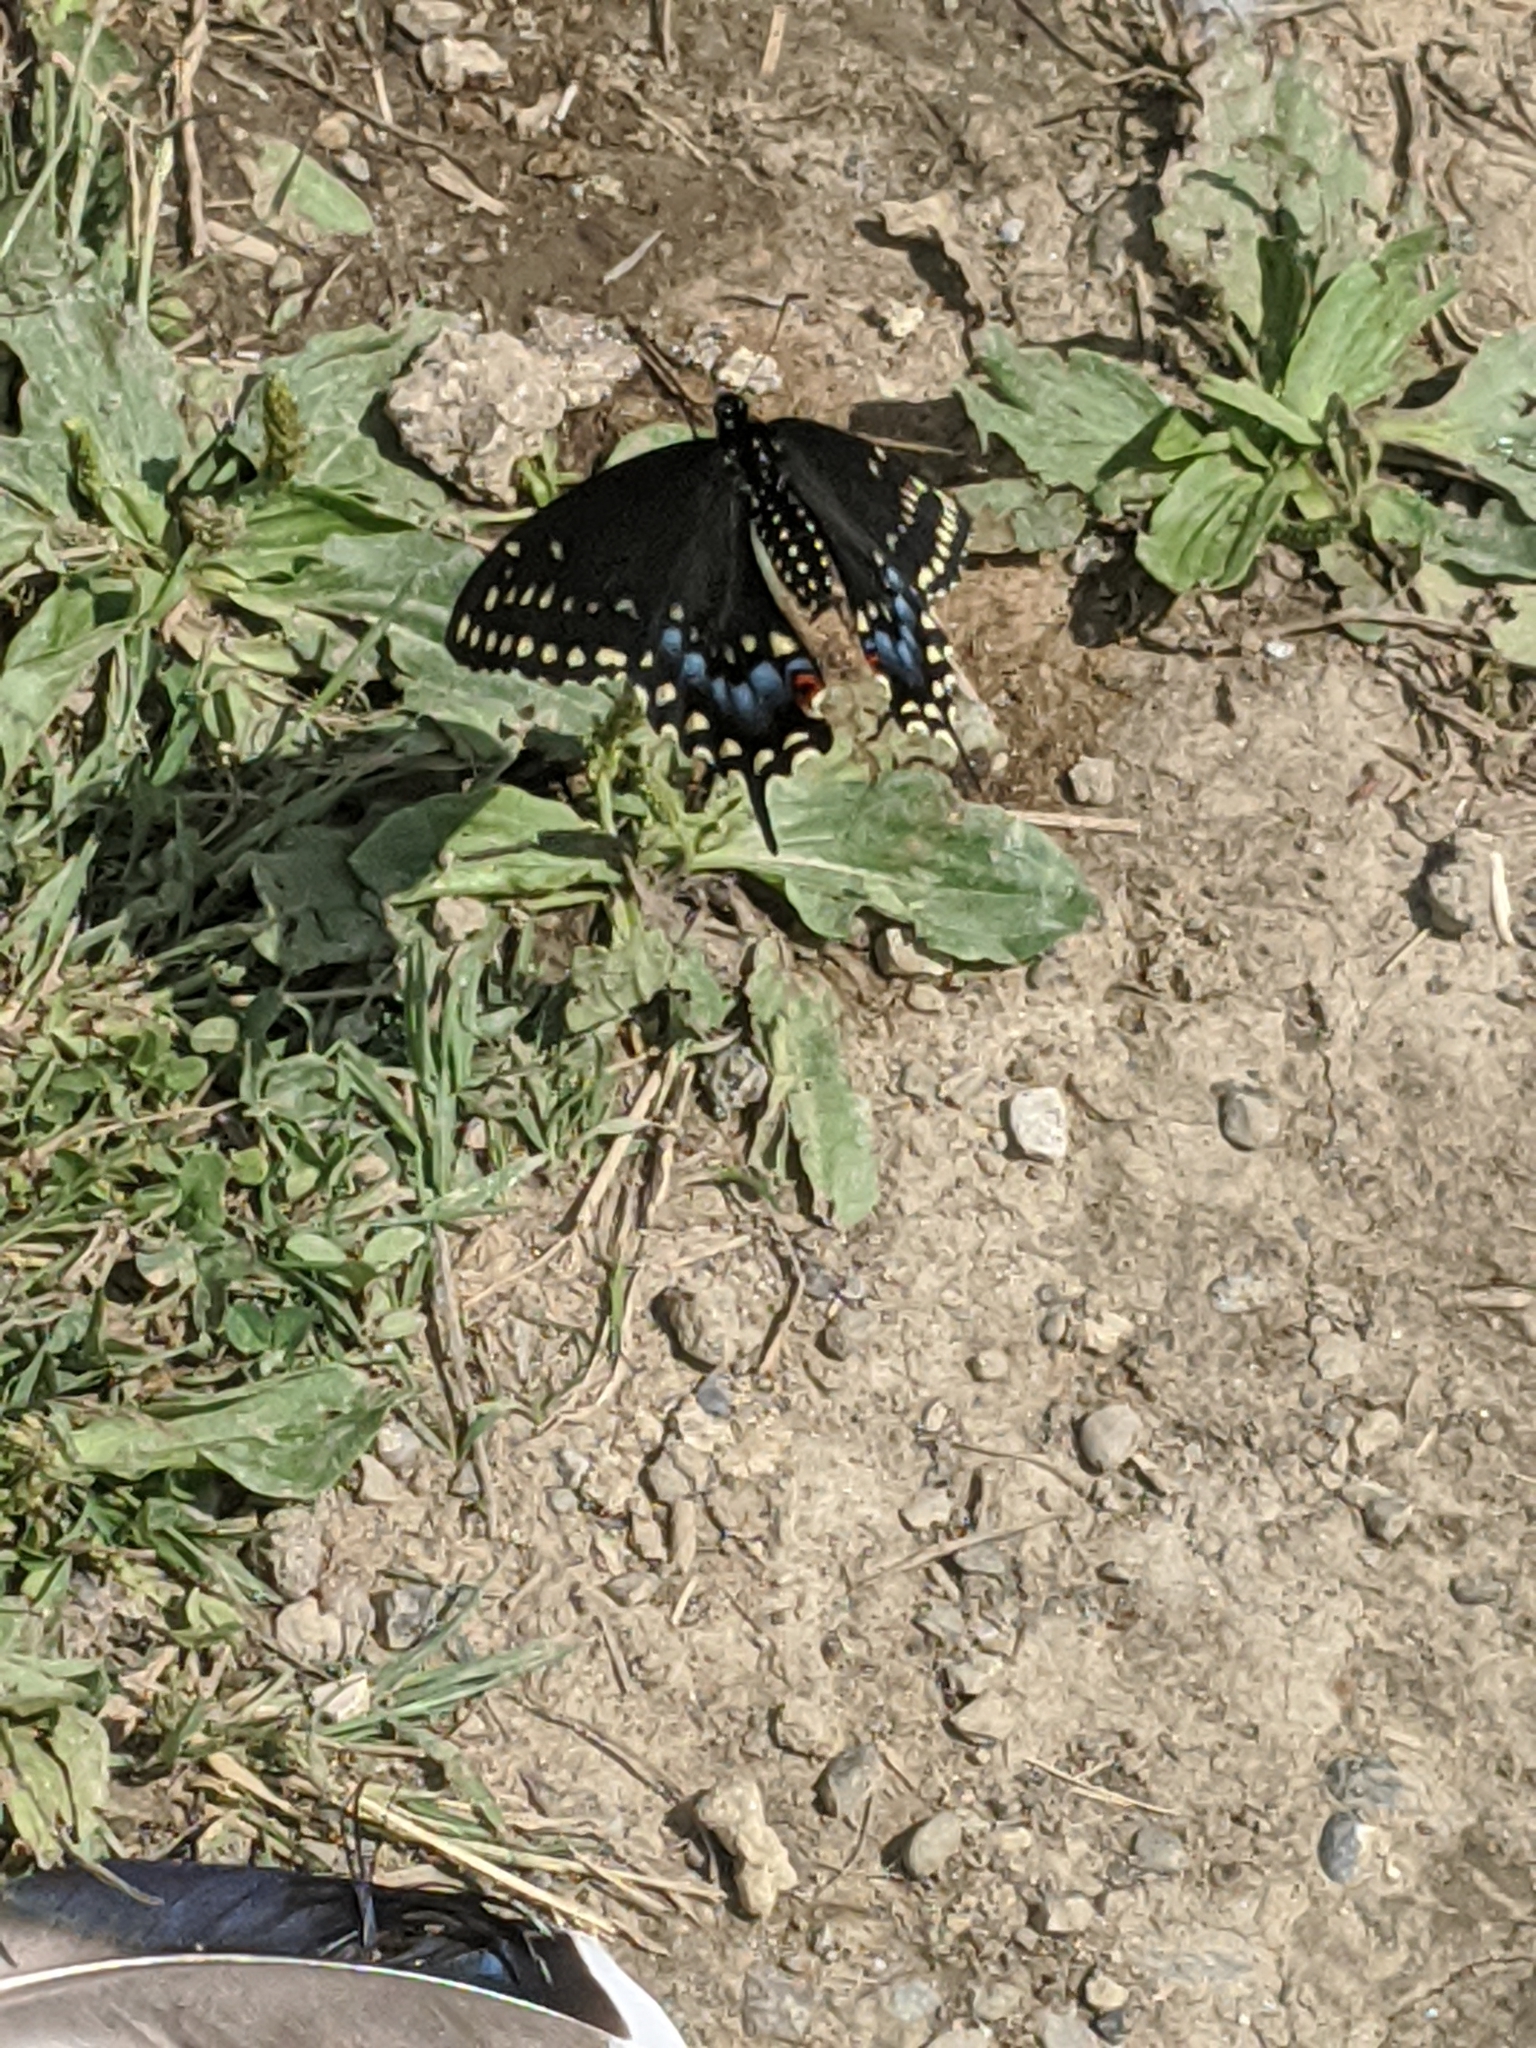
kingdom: Animalia
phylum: Arthropoda
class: Insecta
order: Lepidoptera
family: Papilionidae
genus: Papilio
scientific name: Papilio polyxenes
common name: Black swallowtail
